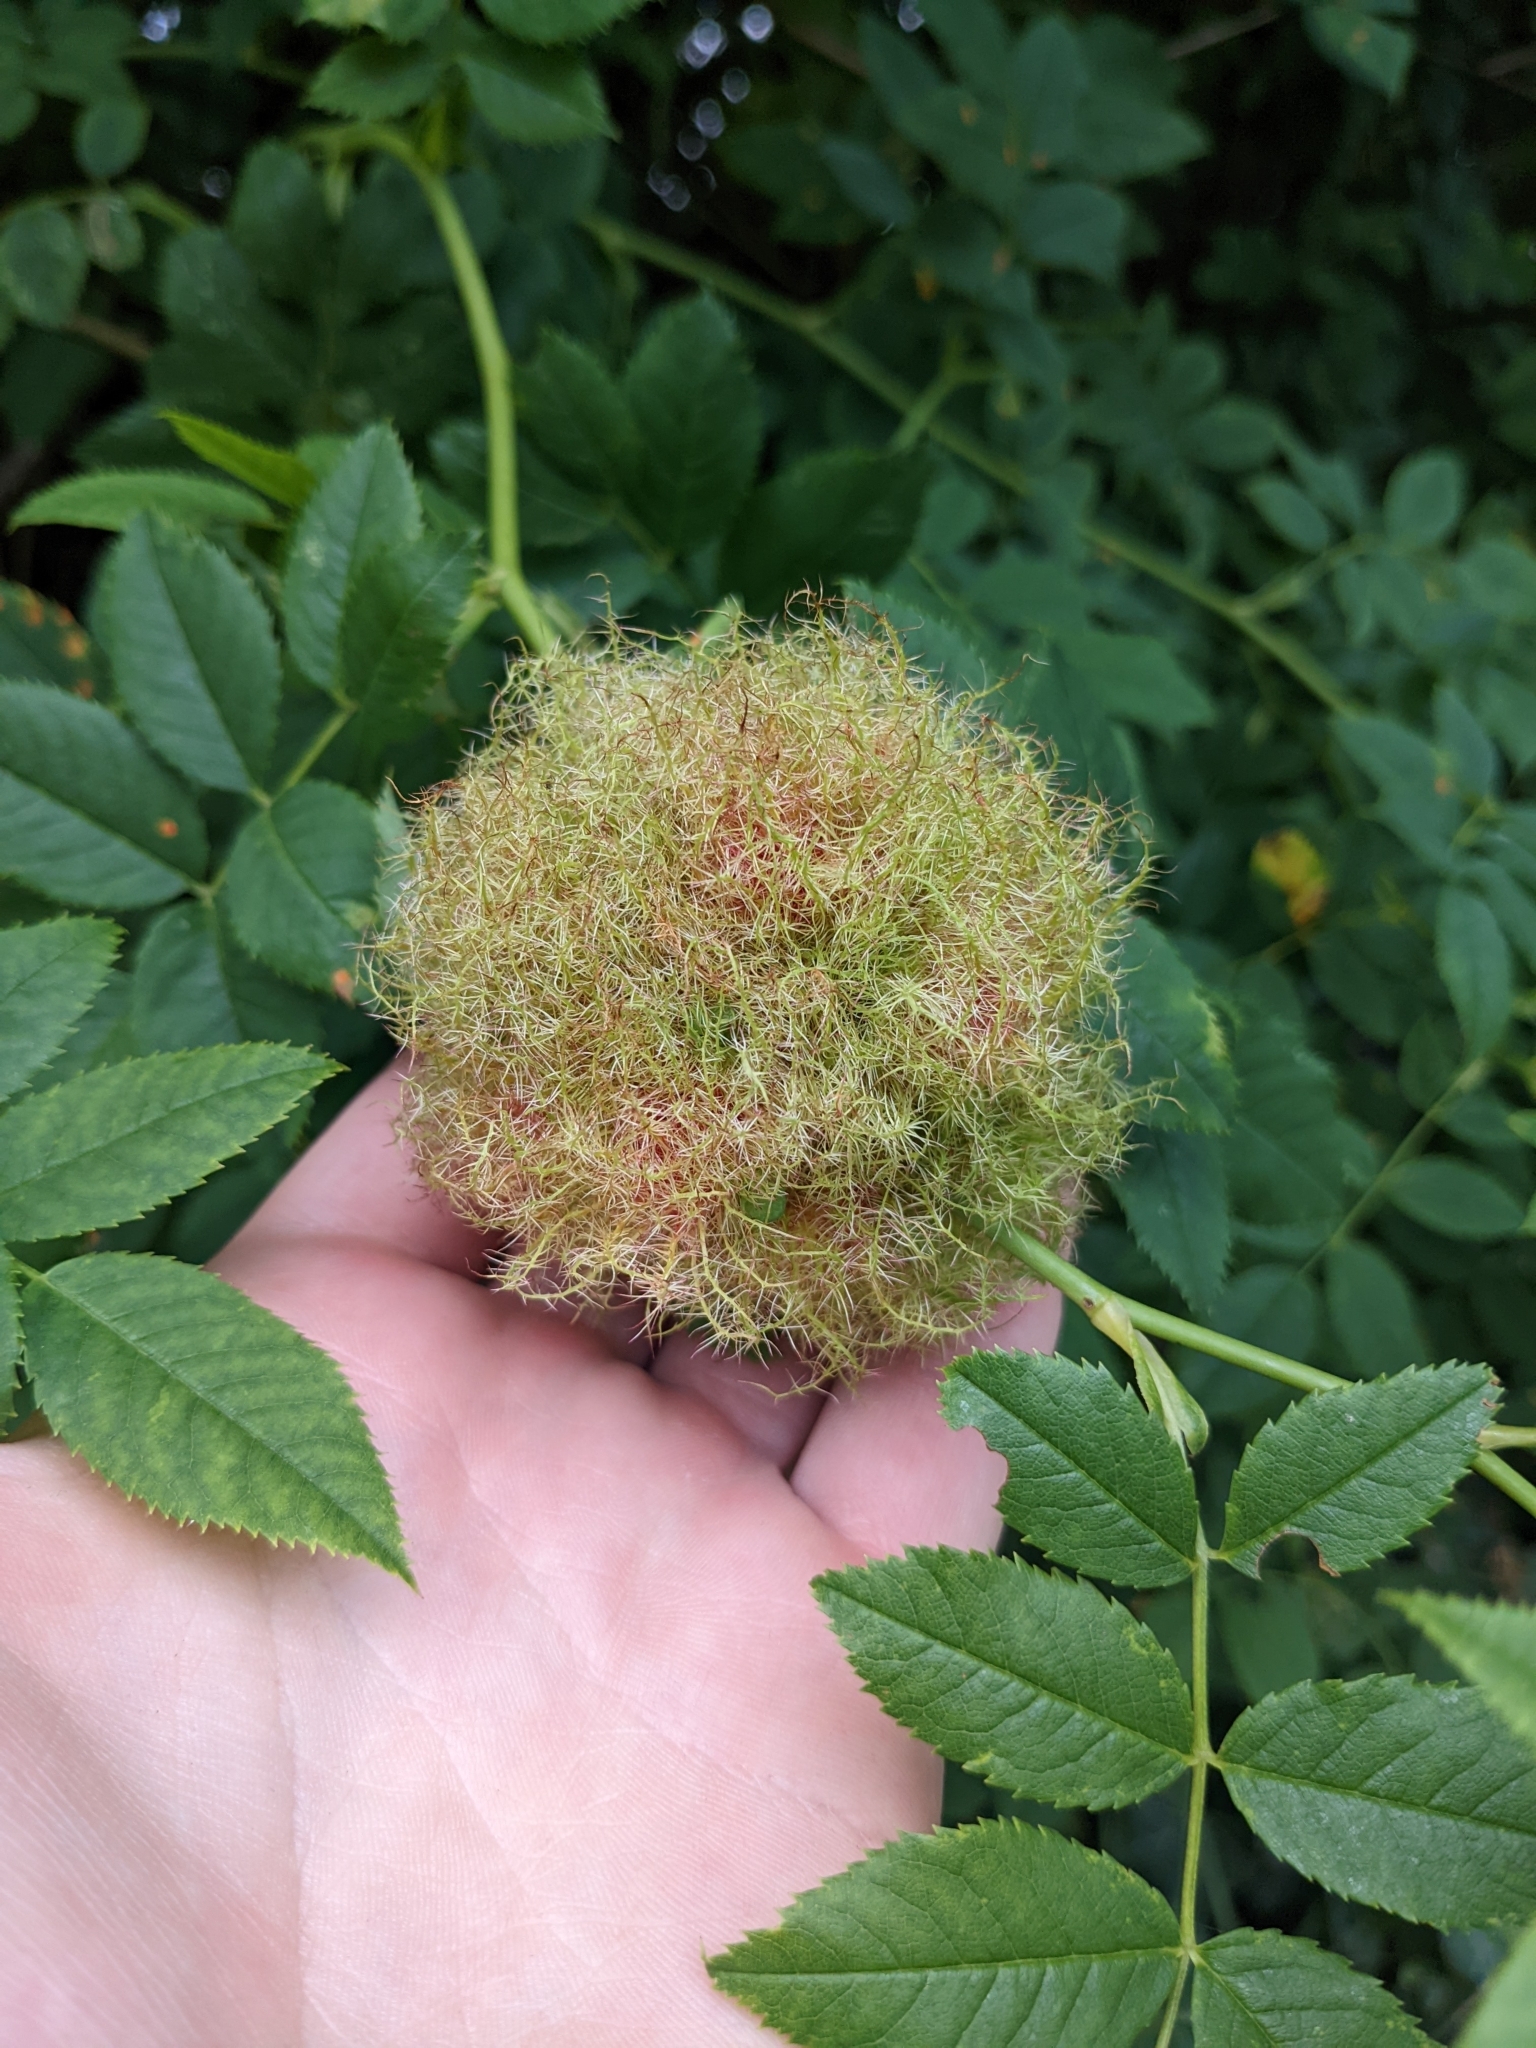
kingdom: Animalia
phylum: Arthropoda
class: Insecta
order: Hymenoptera
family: Cynipidae
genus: Diplolepis
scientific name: Diplolepis rosae
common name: Bedeguar gall
